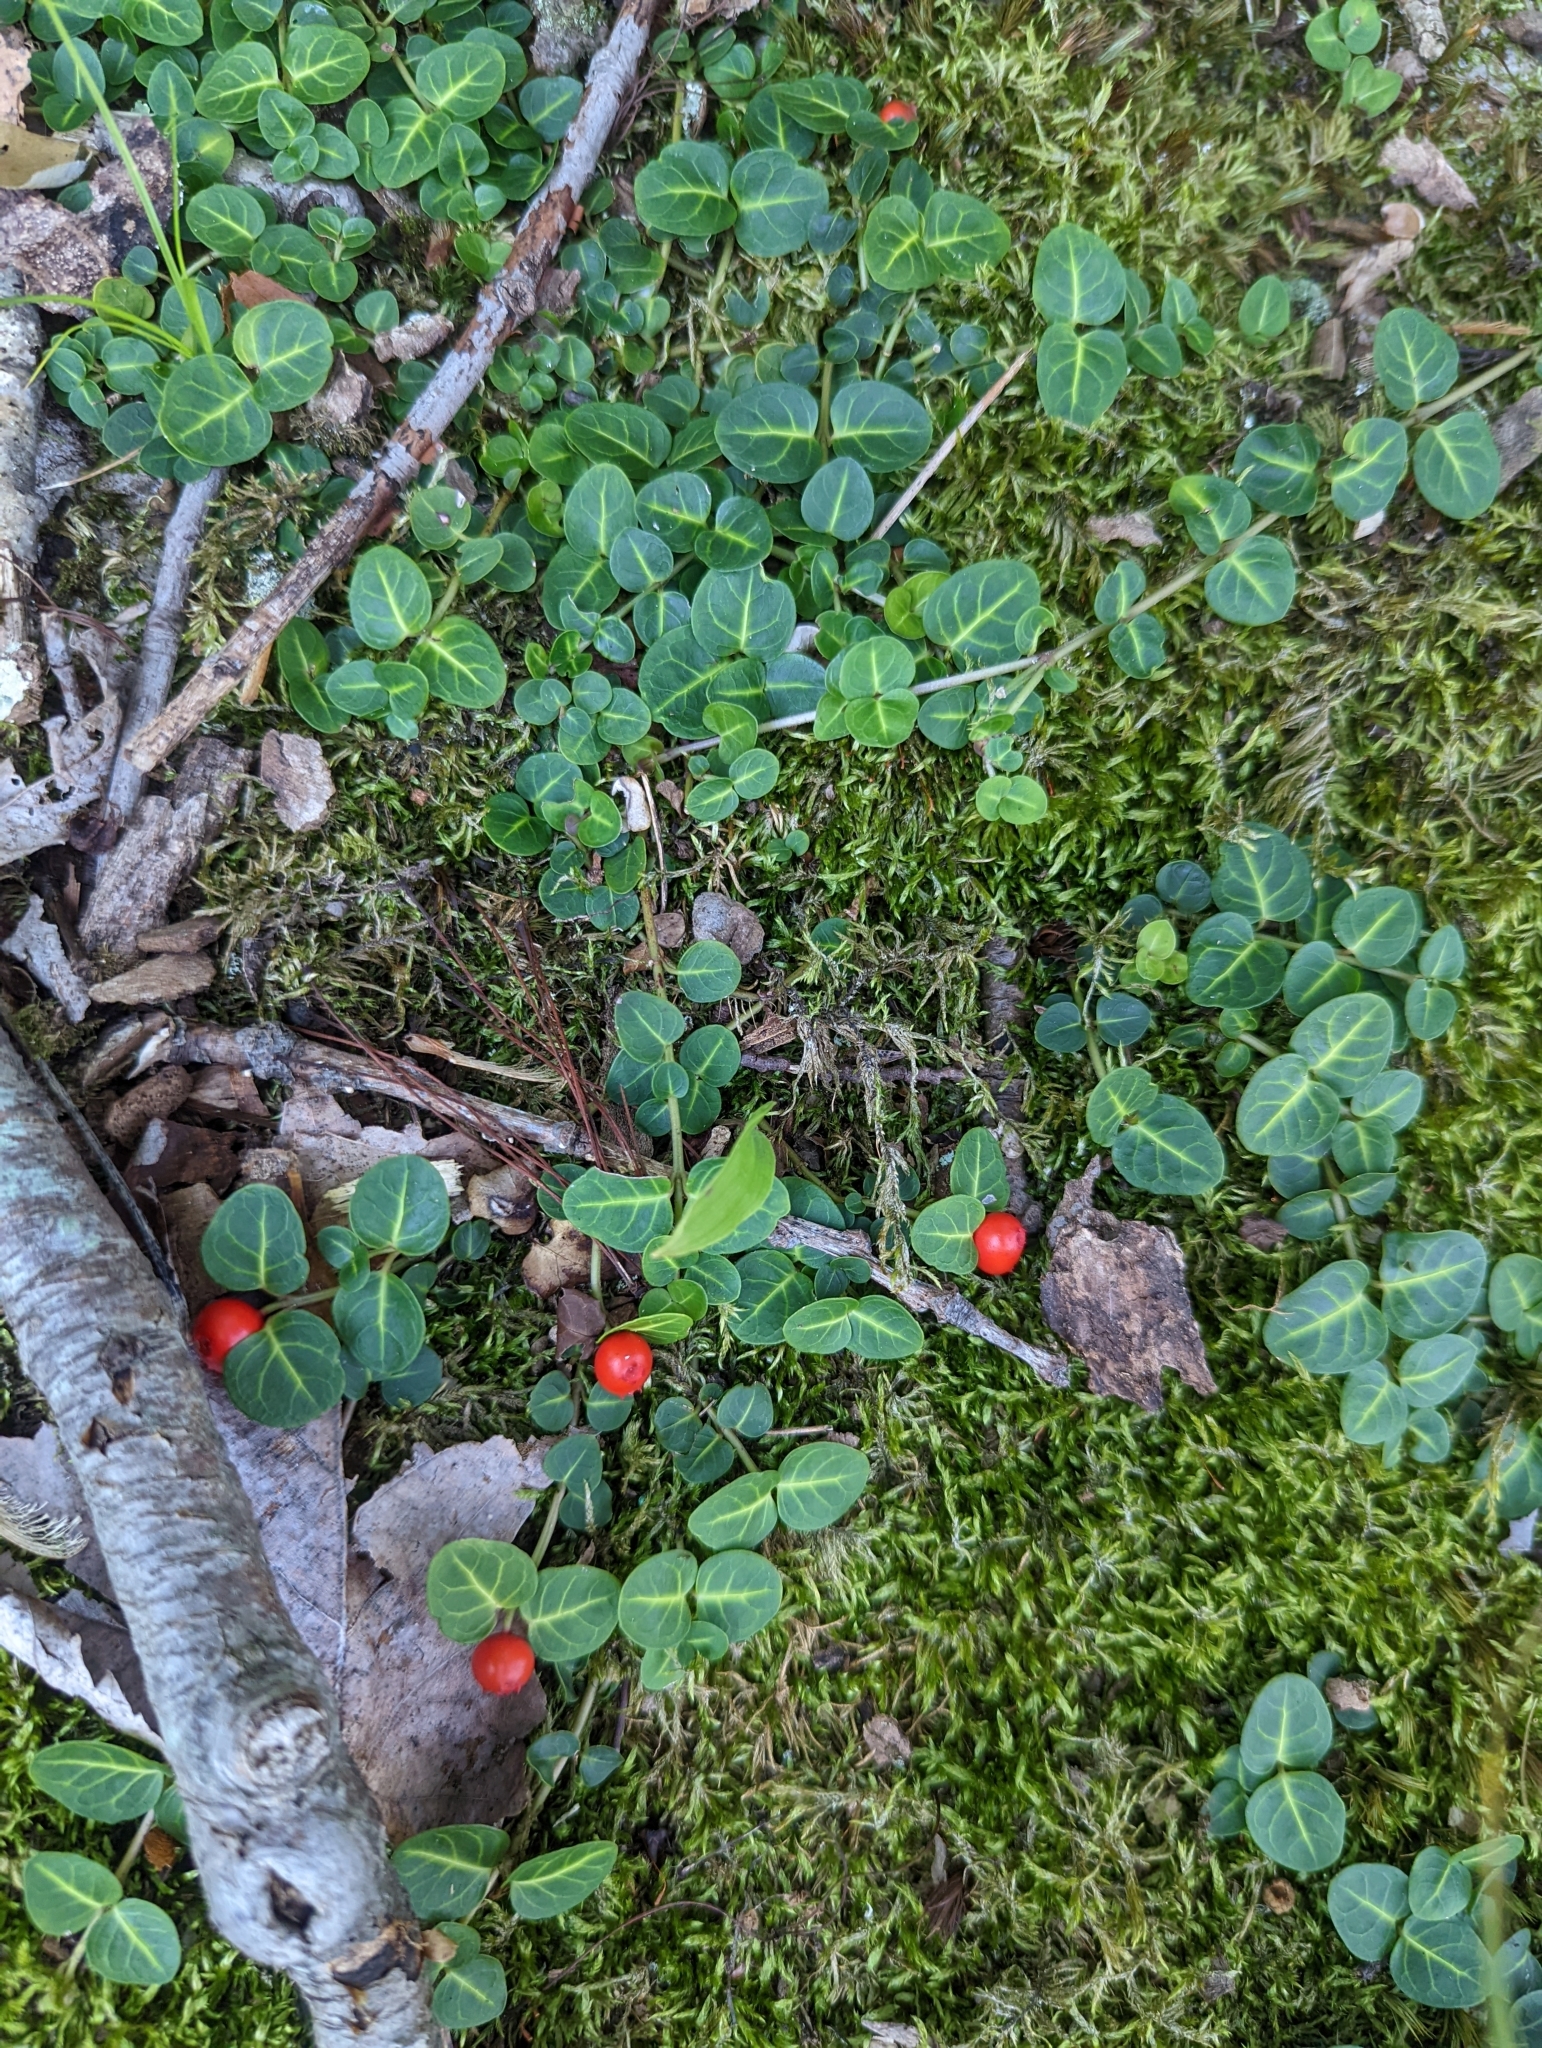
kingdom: Plantae
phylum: Tracheophyta
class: Magnoliopsida
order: Gentianales
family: Rubiaceae
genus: Mitchella
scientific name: Mitchella repens
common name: Partridge-berry
